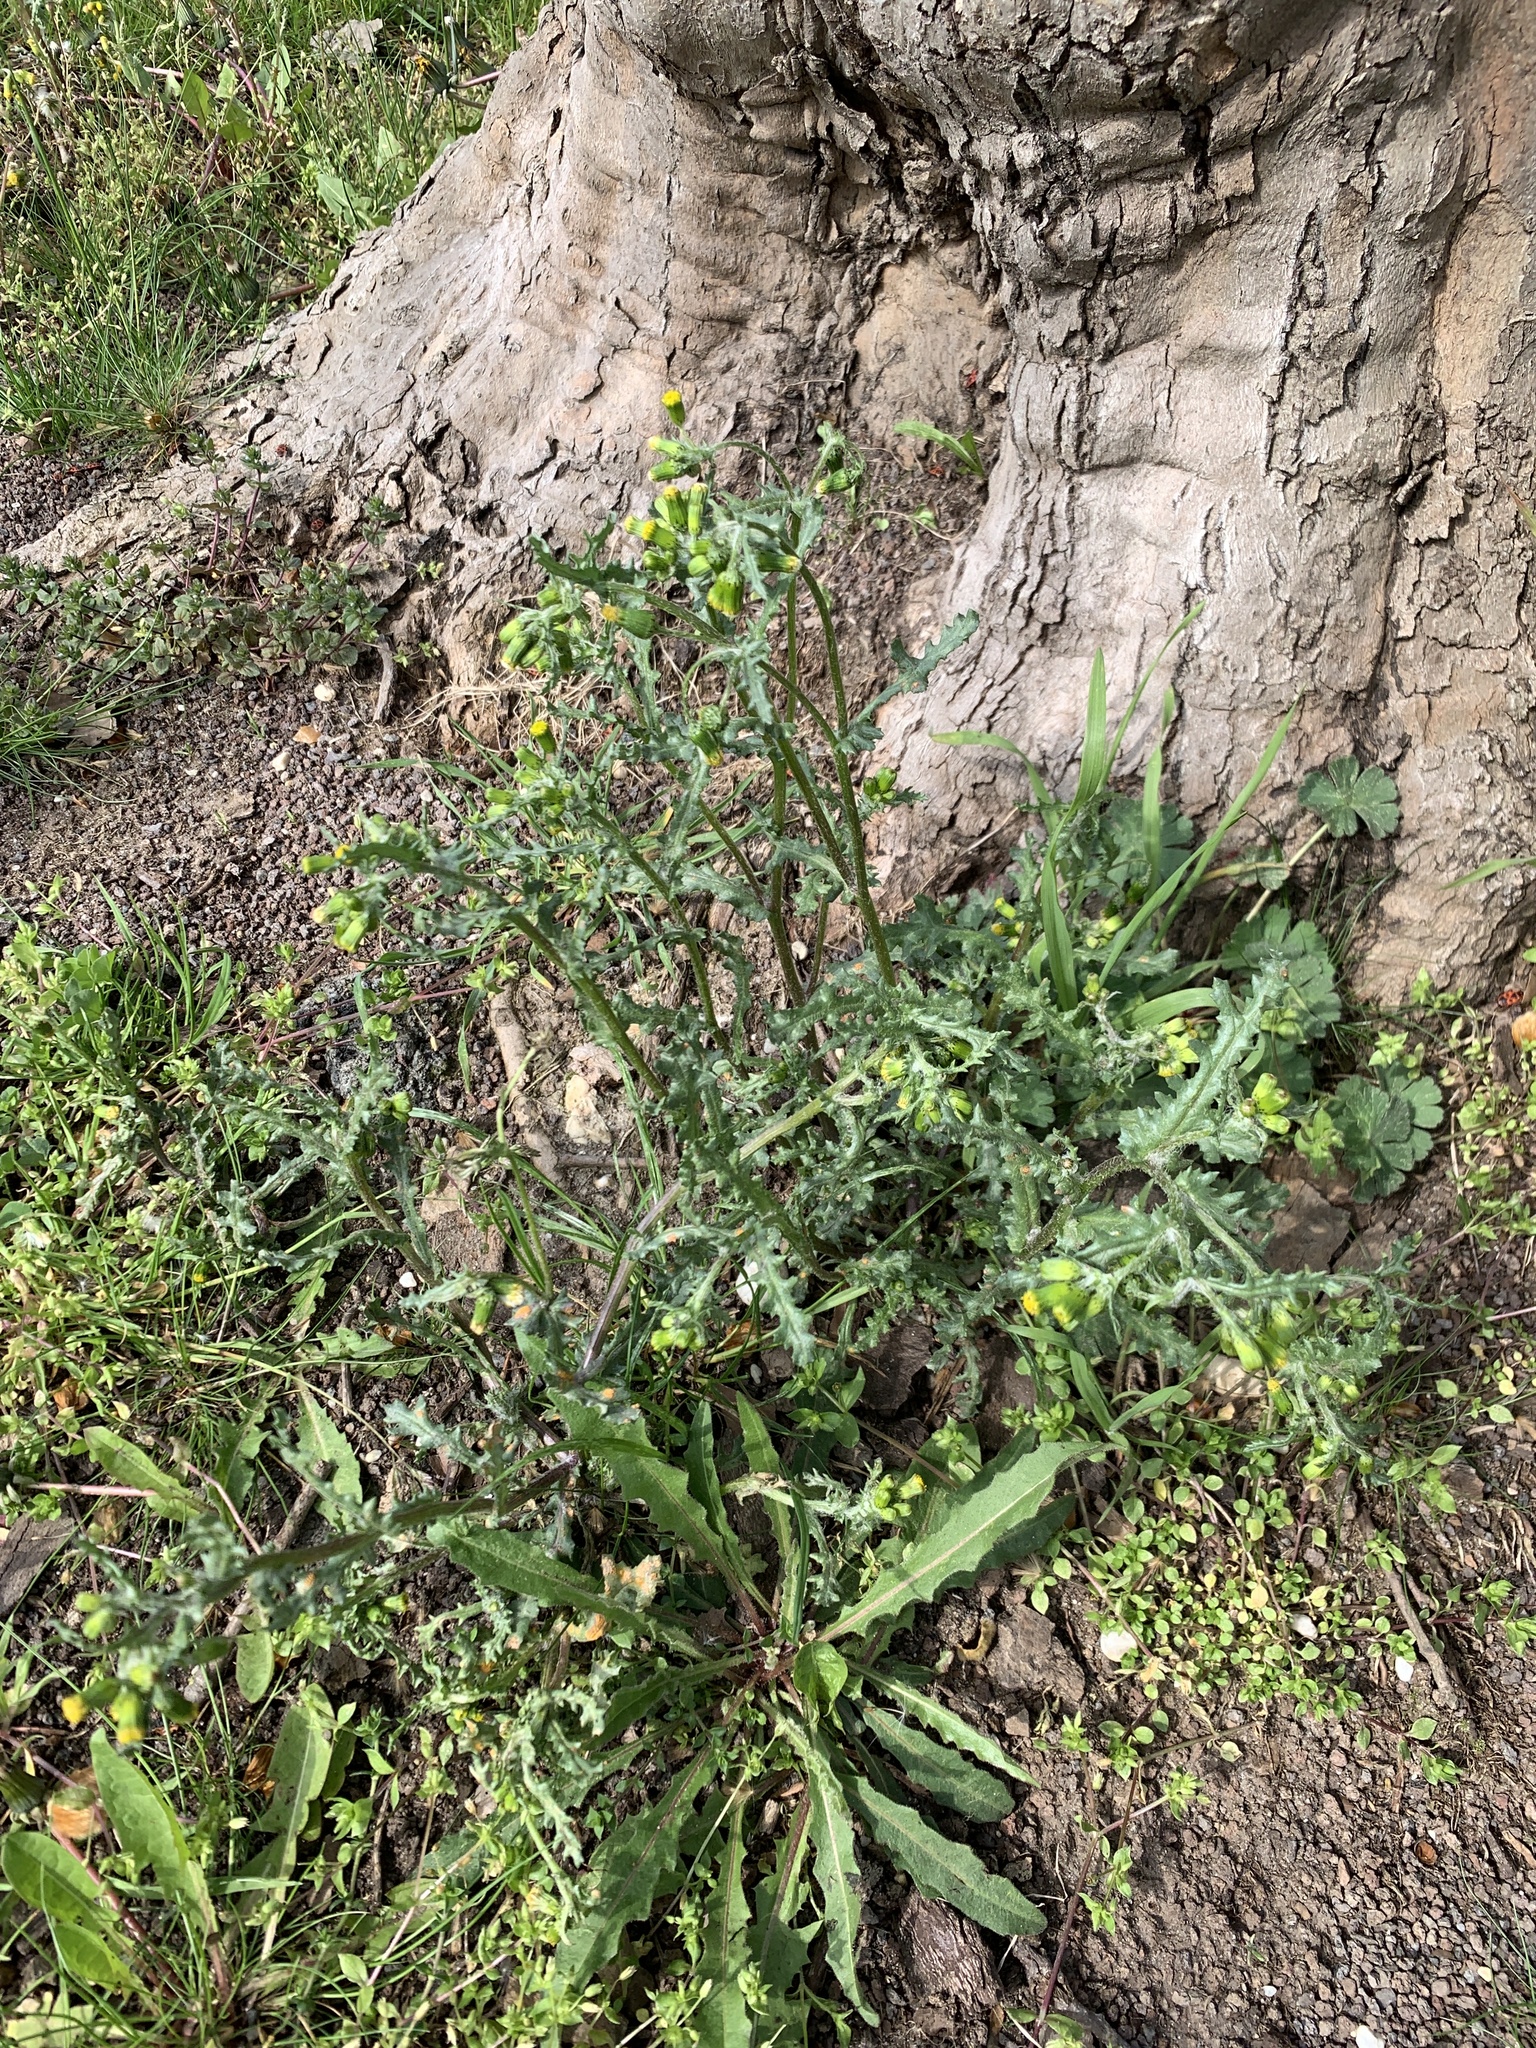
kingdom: Plantae
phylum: Tracheophyta
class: Magnoliopsida
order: Asterales
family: Asteraceae
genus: Senecio
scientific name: Senecio vulgaris
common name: Old-man-in-the-spring
